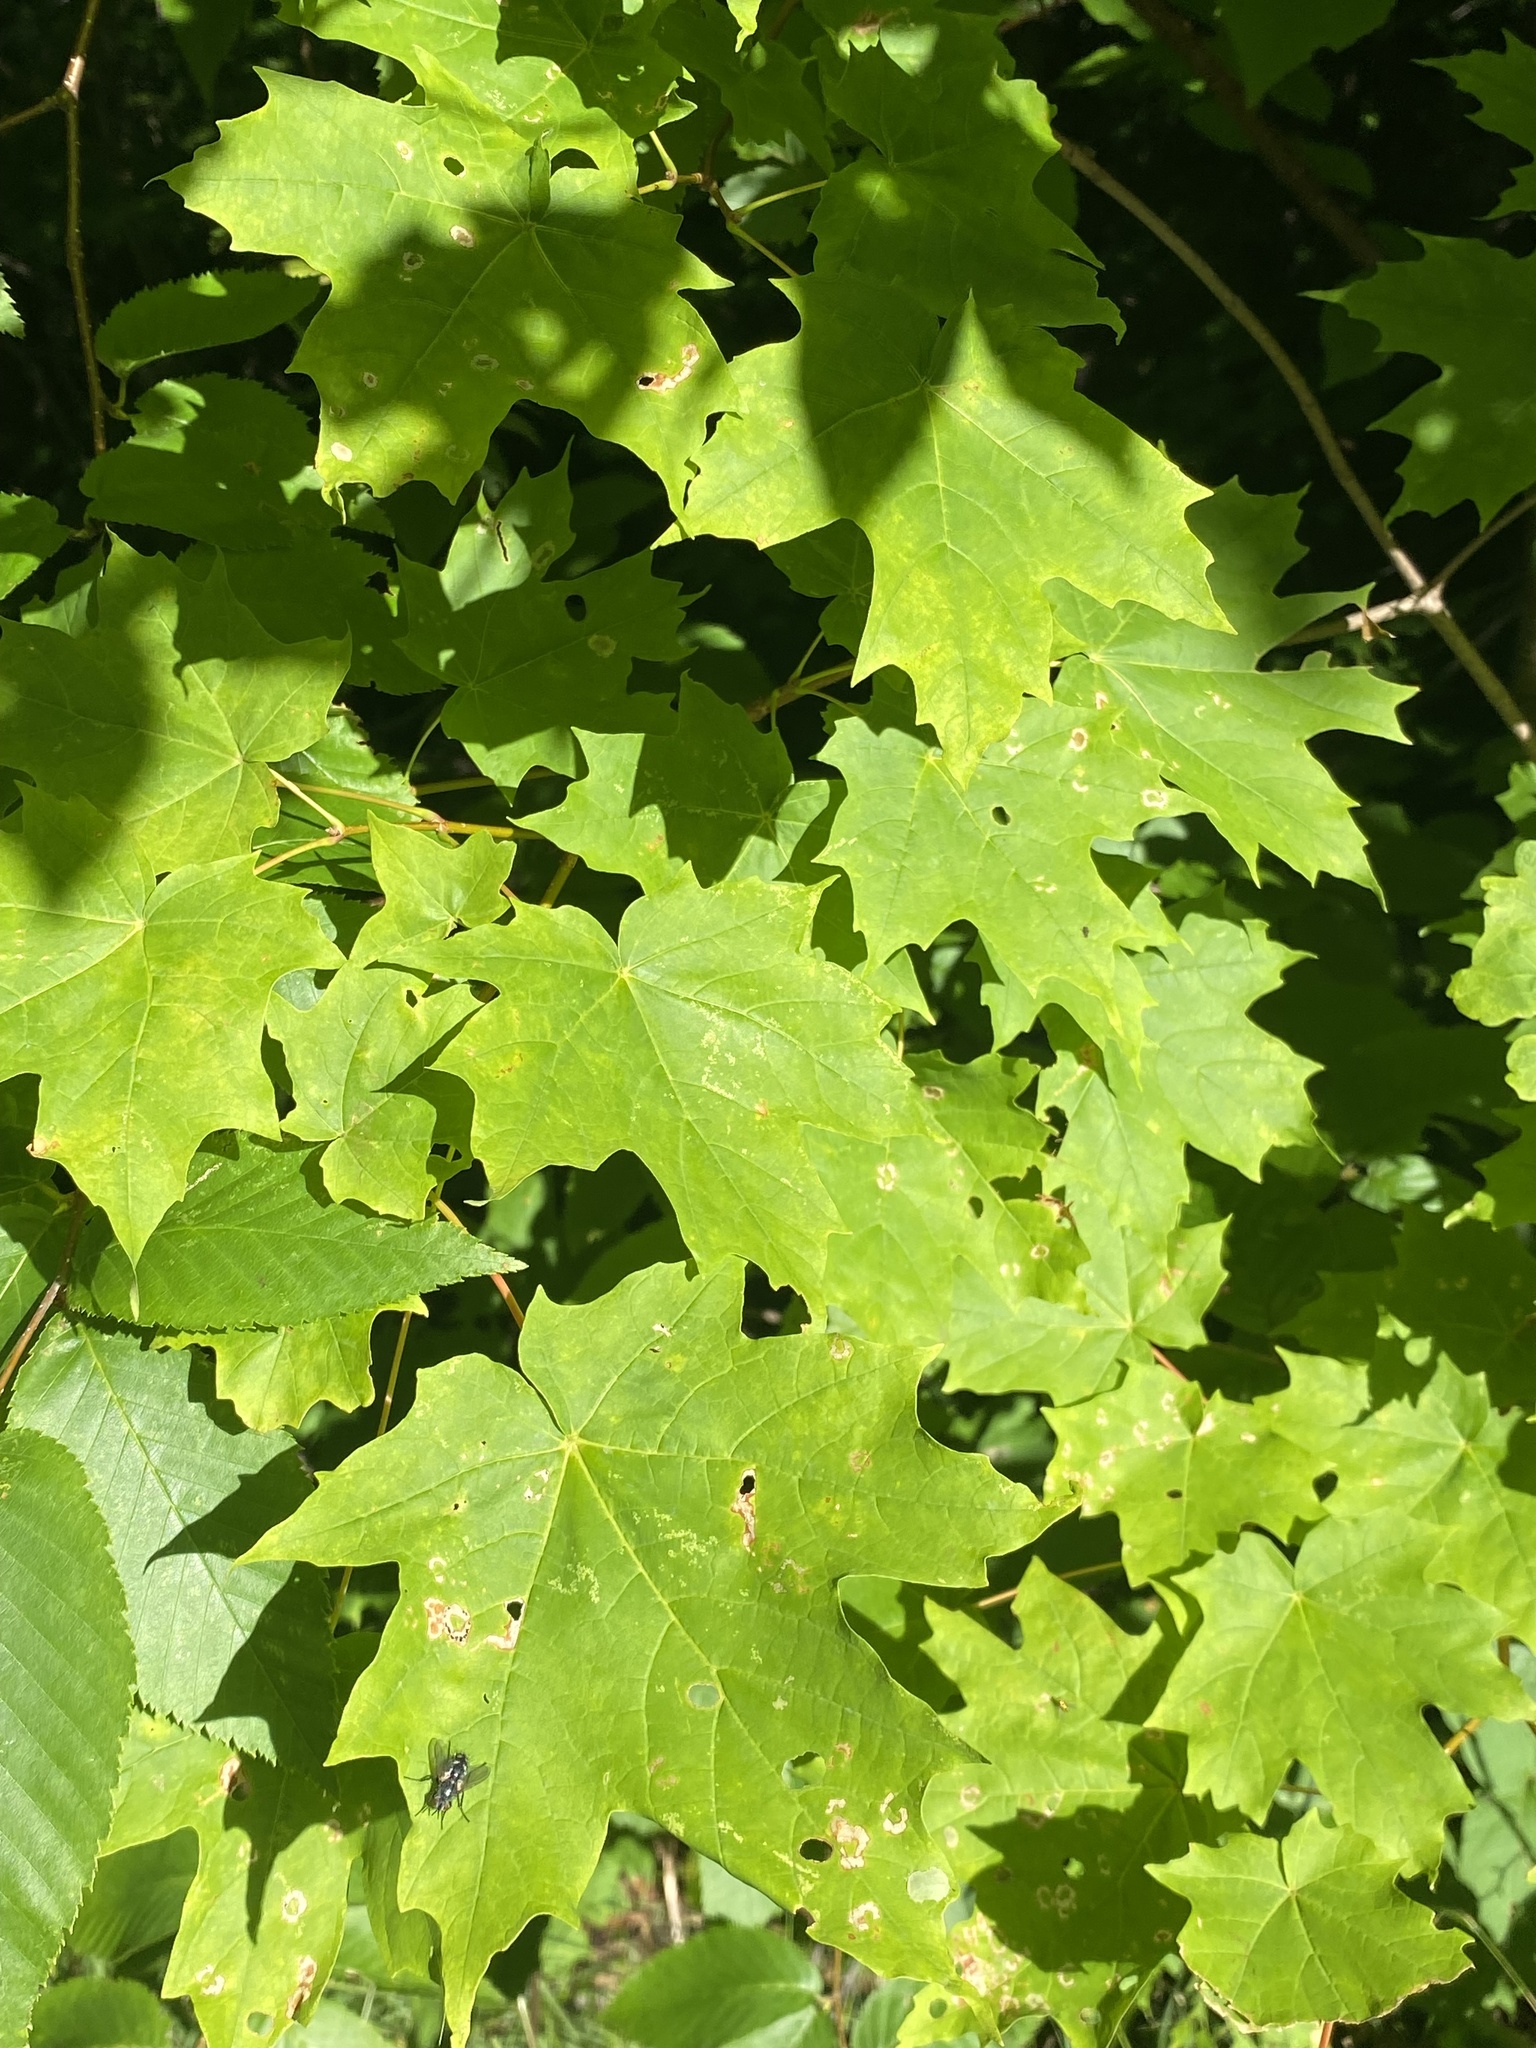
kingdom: Plantae
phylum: Tracheophyta
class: Magnoliopsida
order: Sapindales
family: Sapindaceae
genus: Acer
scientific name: Acer saccharum
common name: Sugar maple
